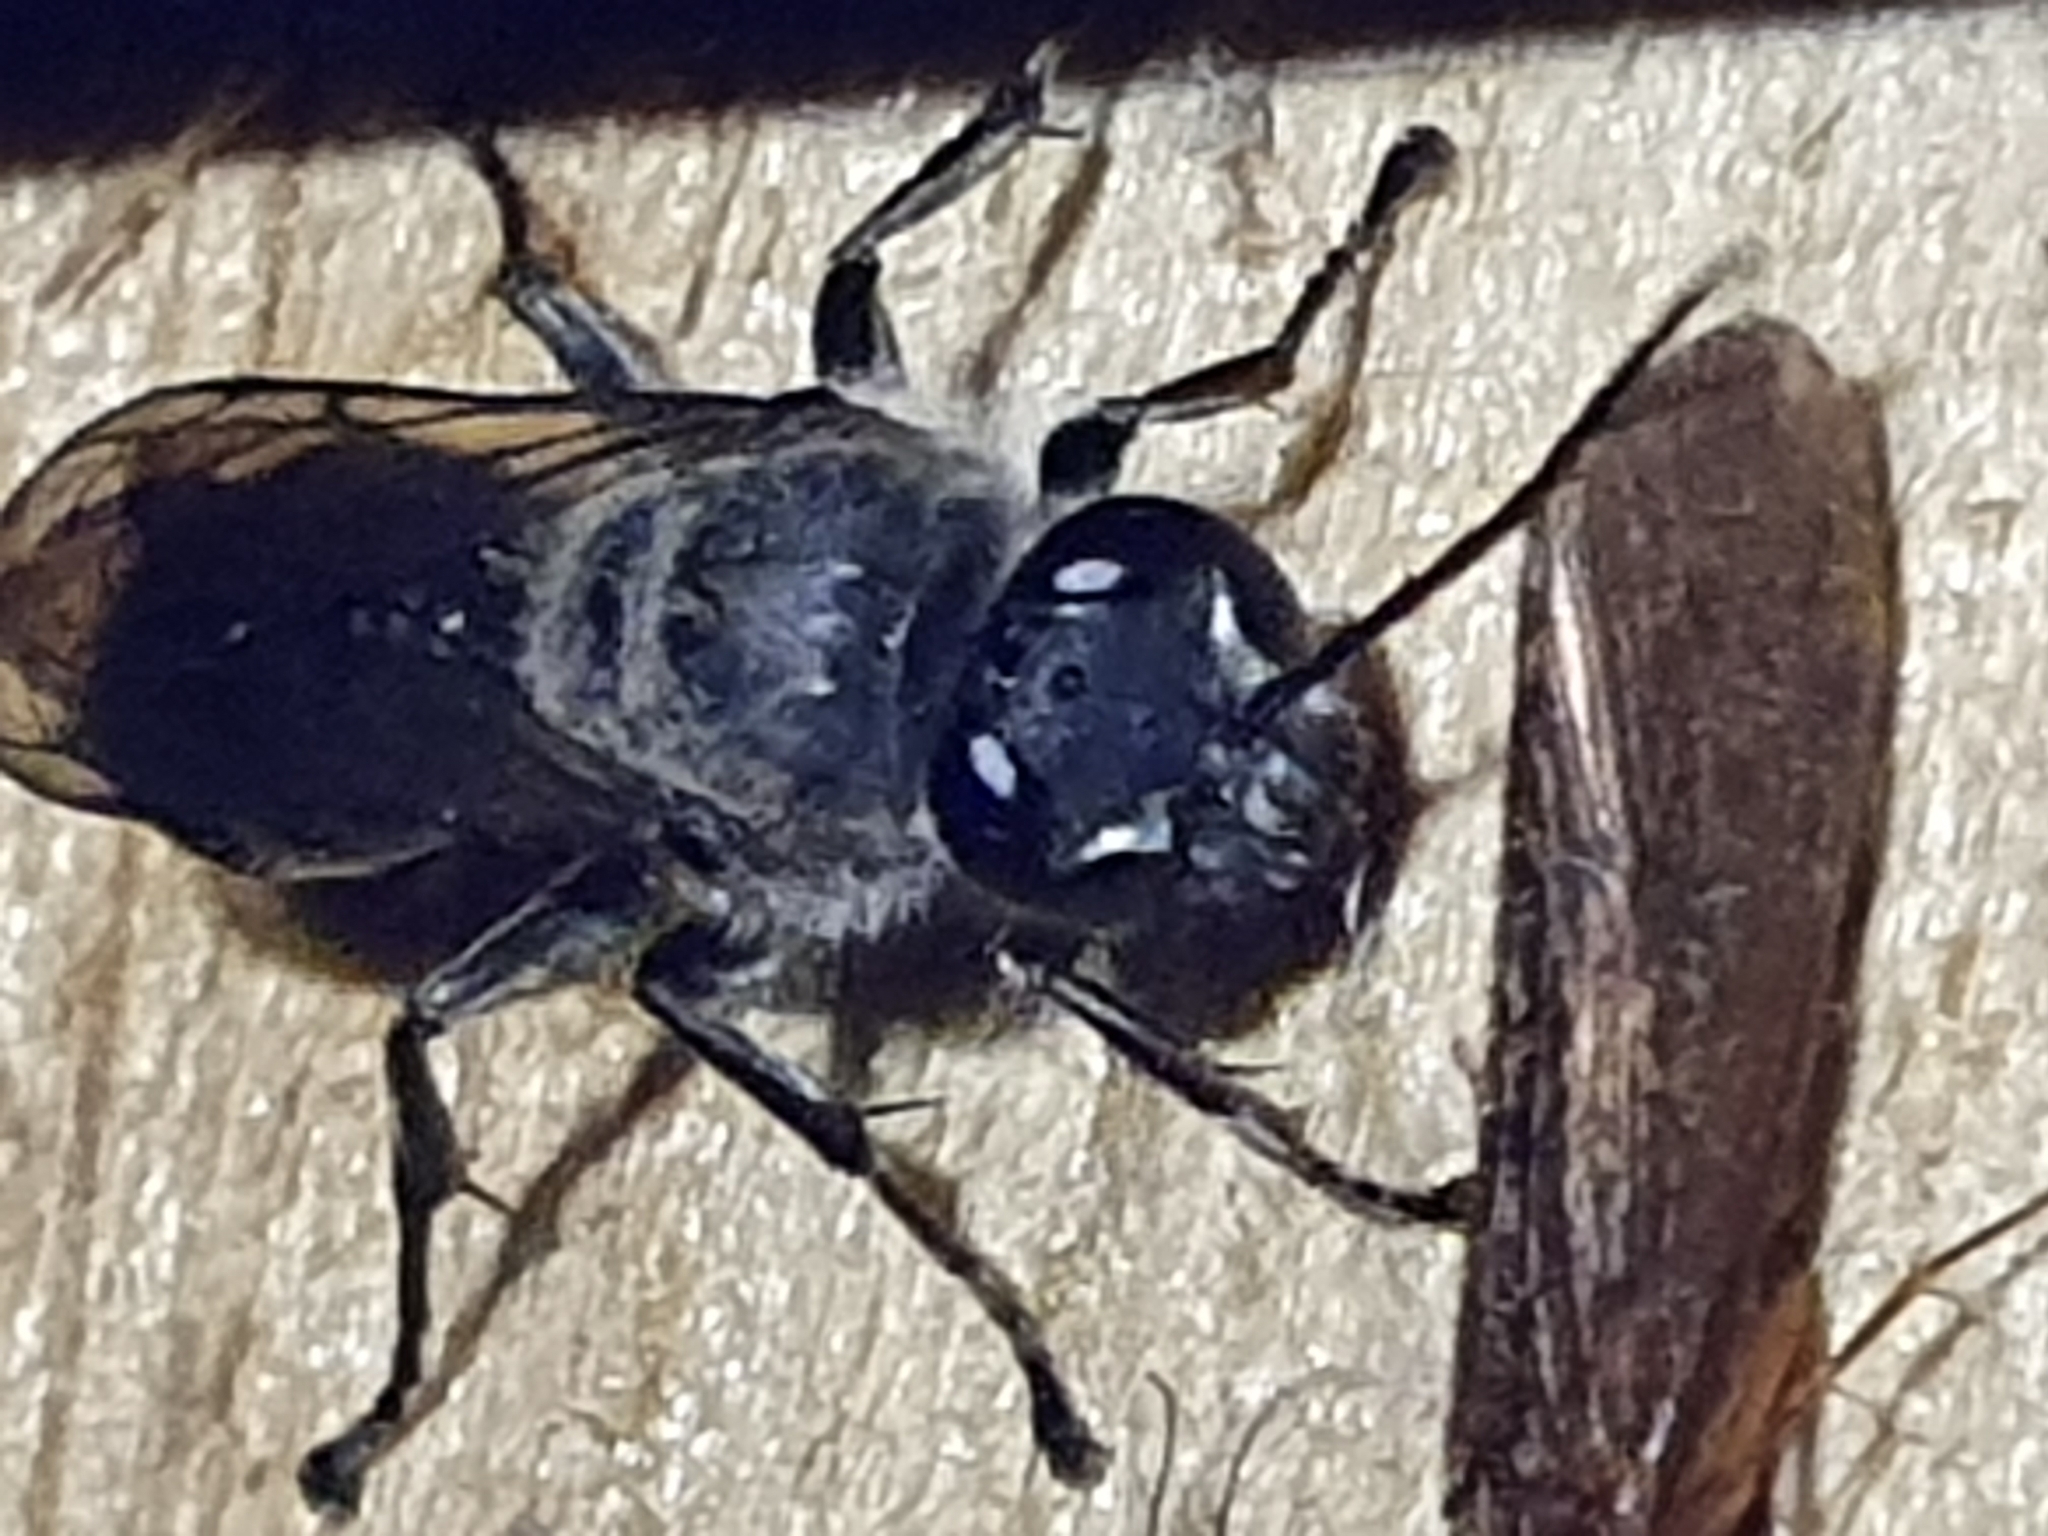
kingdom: Animalia
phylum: Arthropoda
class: Insecta
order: Hymenoptera
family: Crabronidae
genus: Pison
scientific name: Pison spinolae
